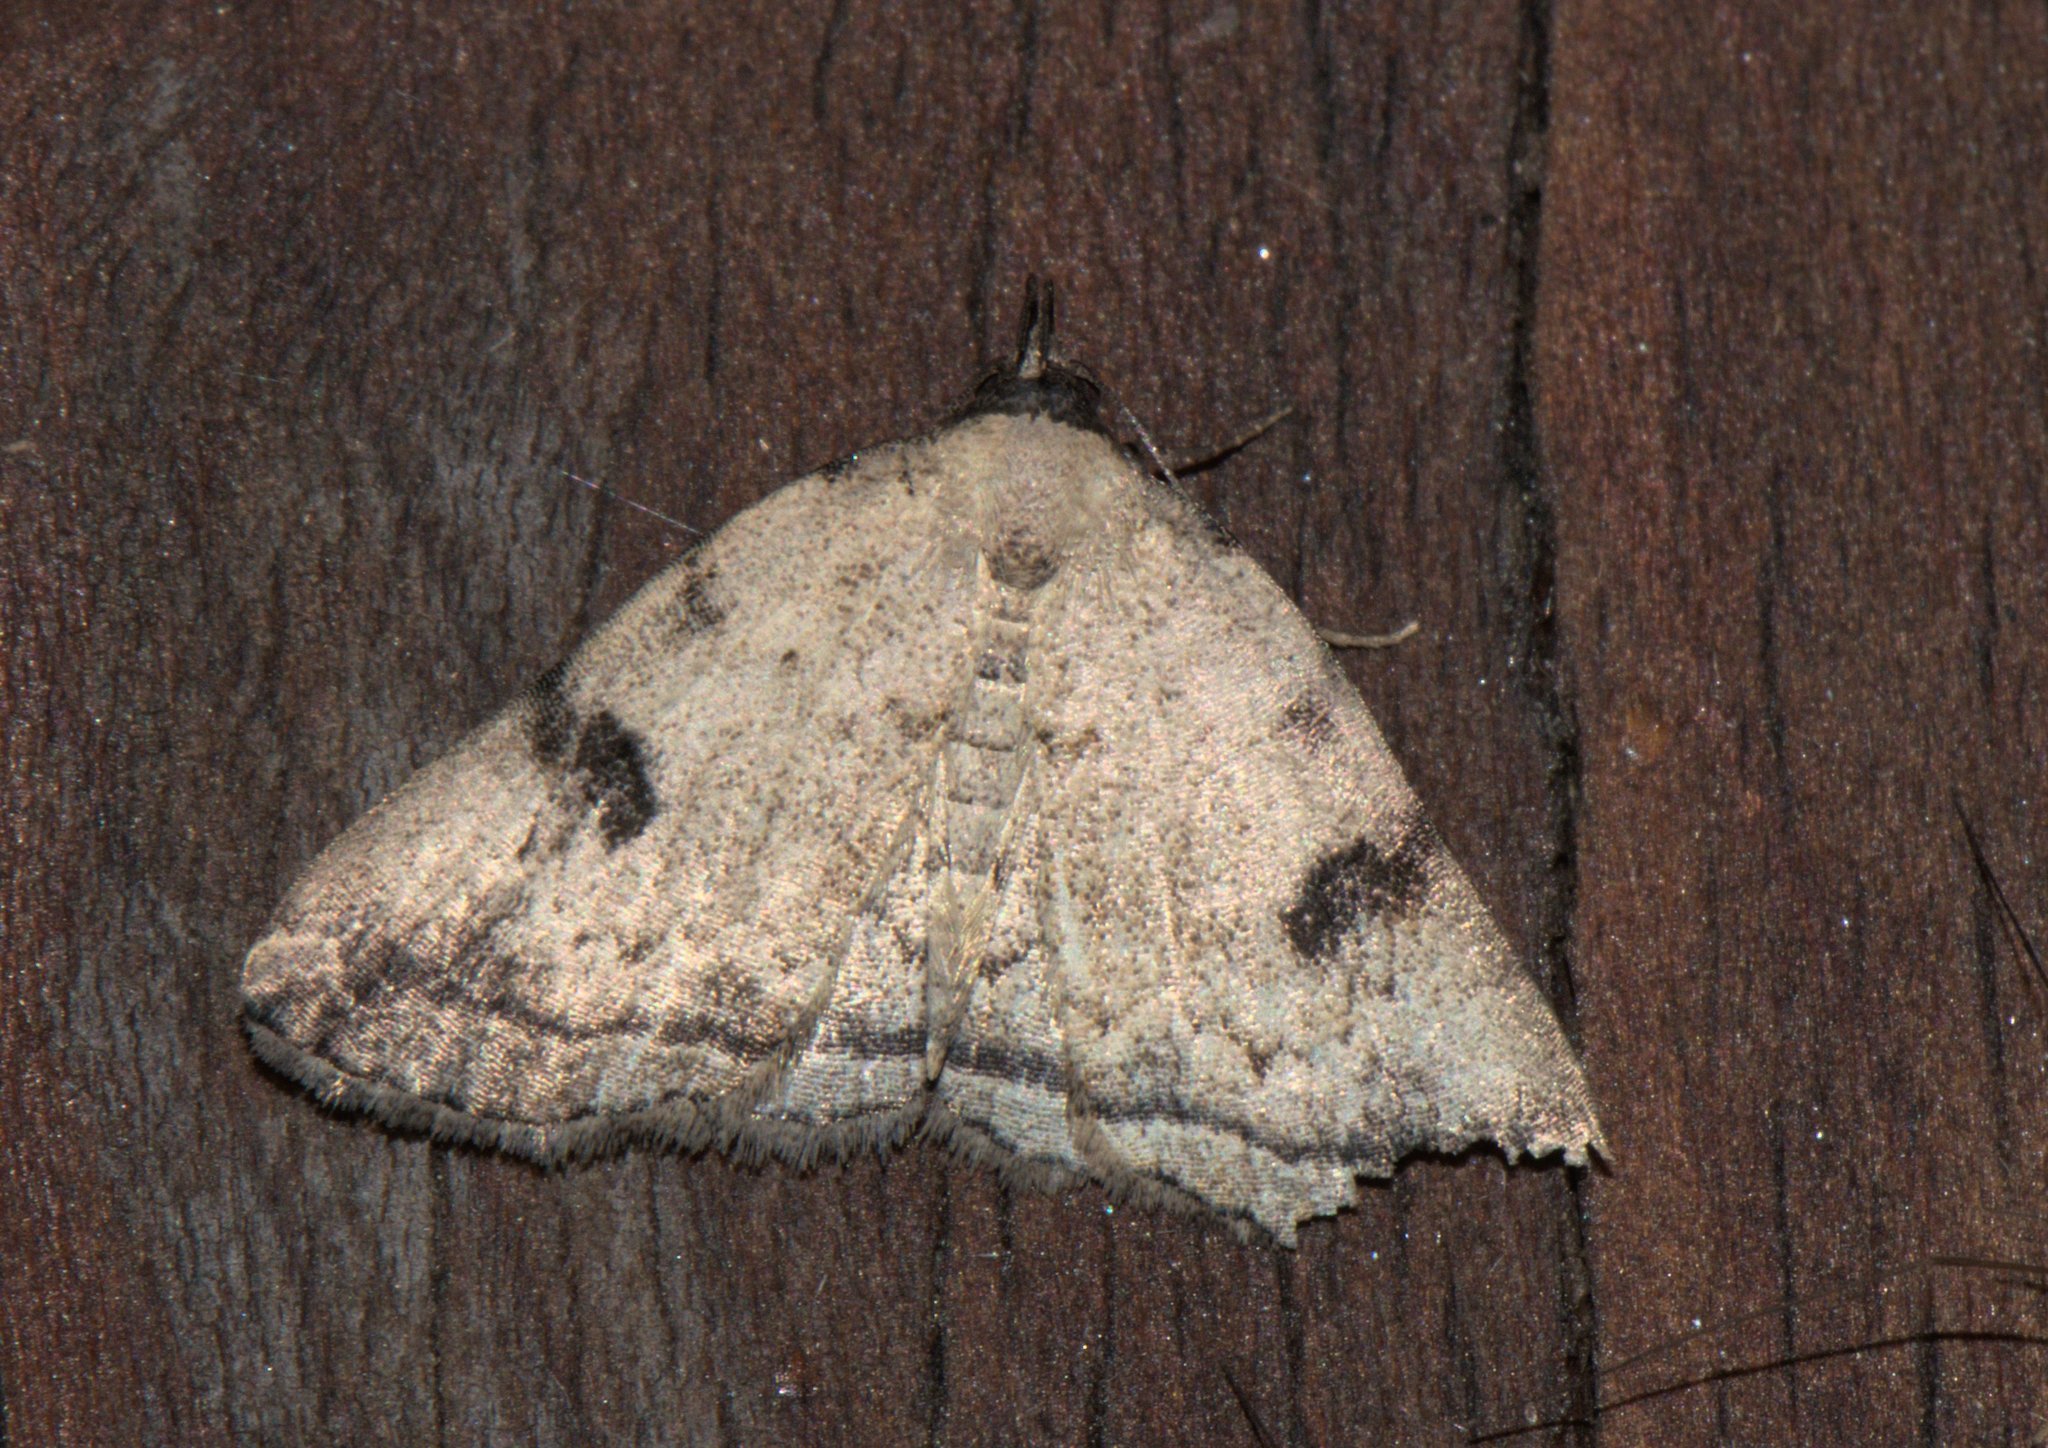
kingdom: Animalia
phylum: Arthropoda
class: Insecta
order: Lepidoptera
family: Erebidae
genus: Herminia
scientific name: Herminia
